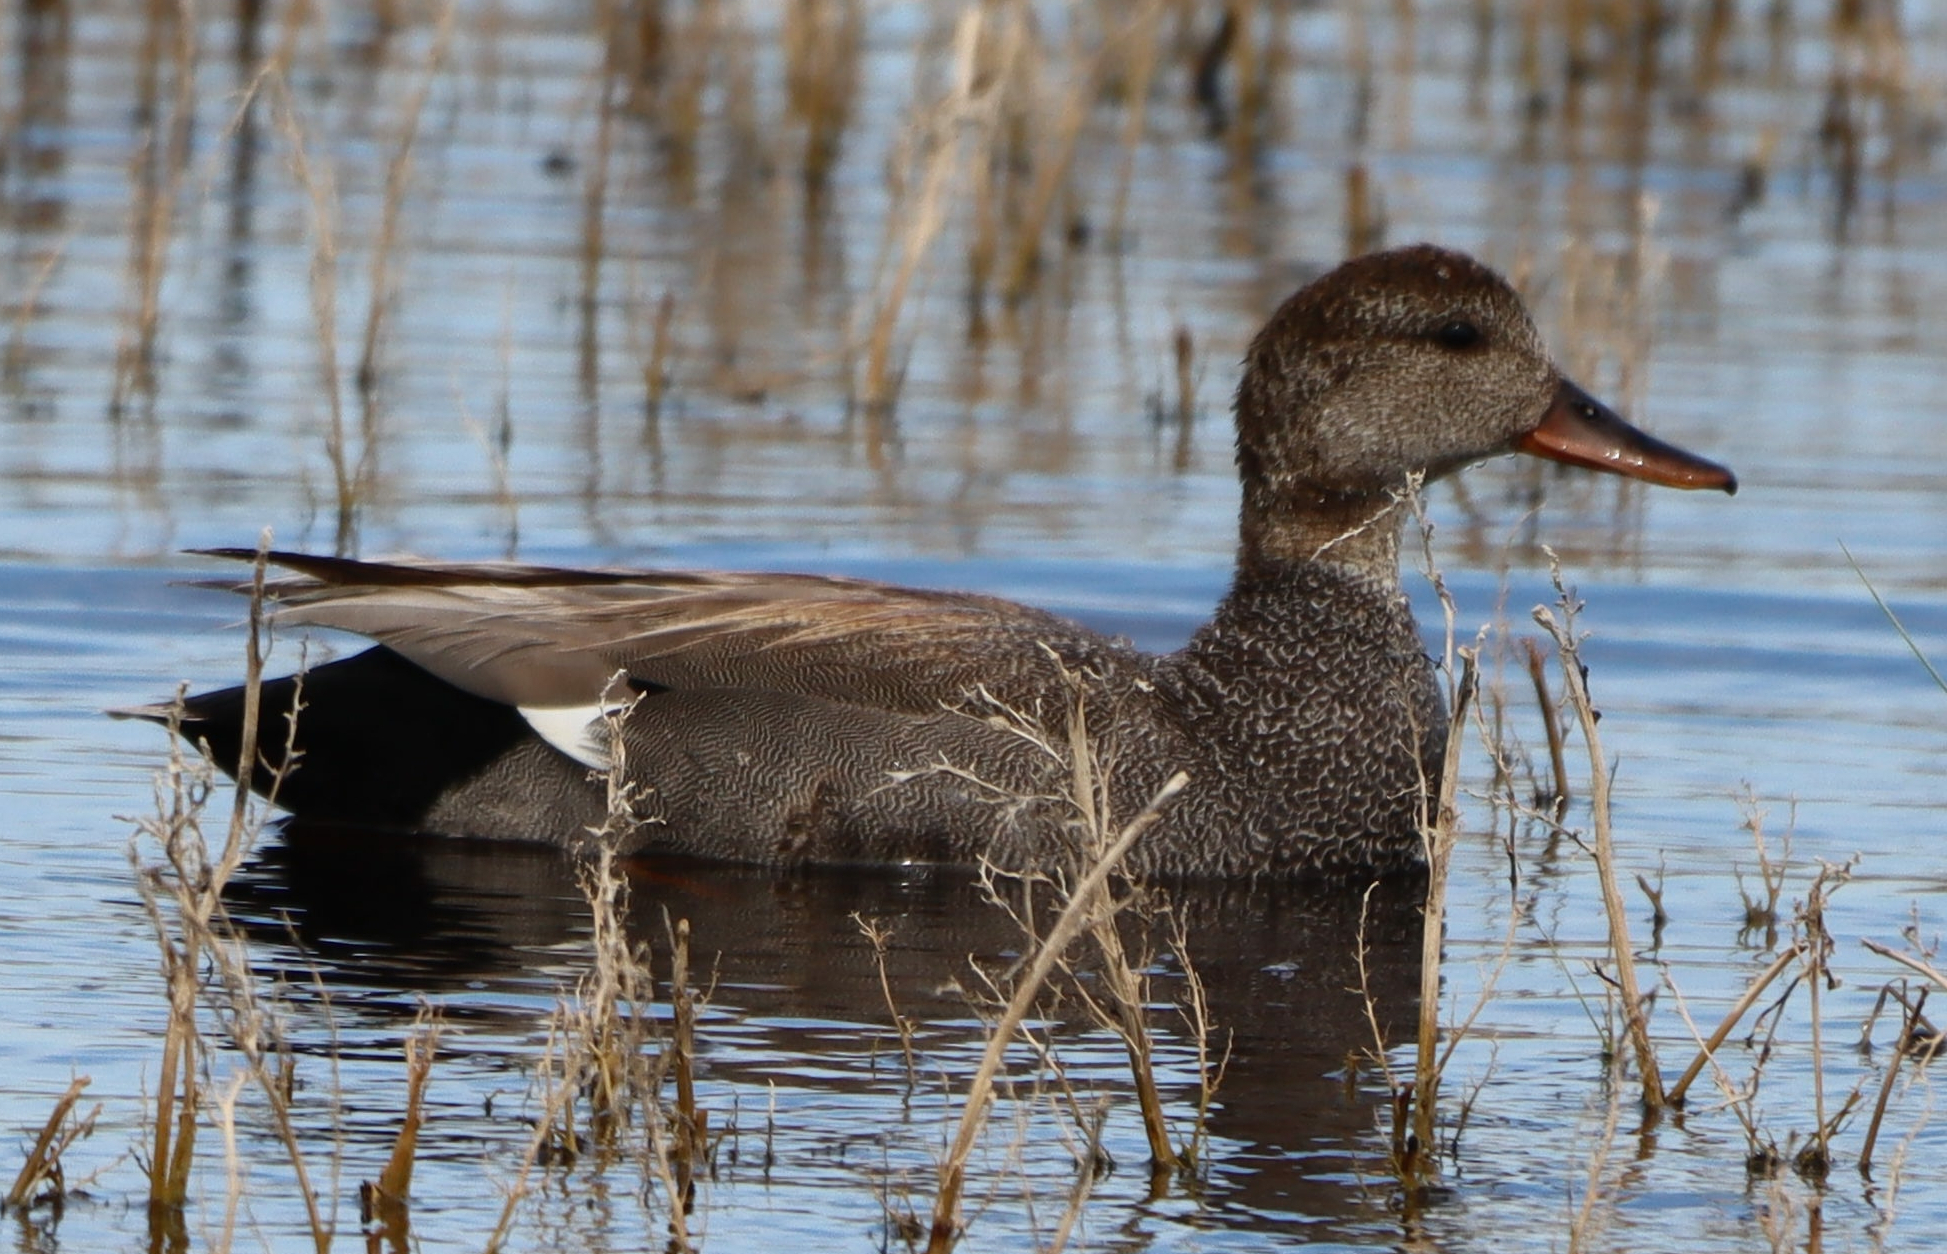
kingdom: Animalia
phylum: Chordata
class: Aves
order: Anseriformes
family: Anatidae
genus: Mareca
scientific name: Mareca strepera
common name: Gadwall
